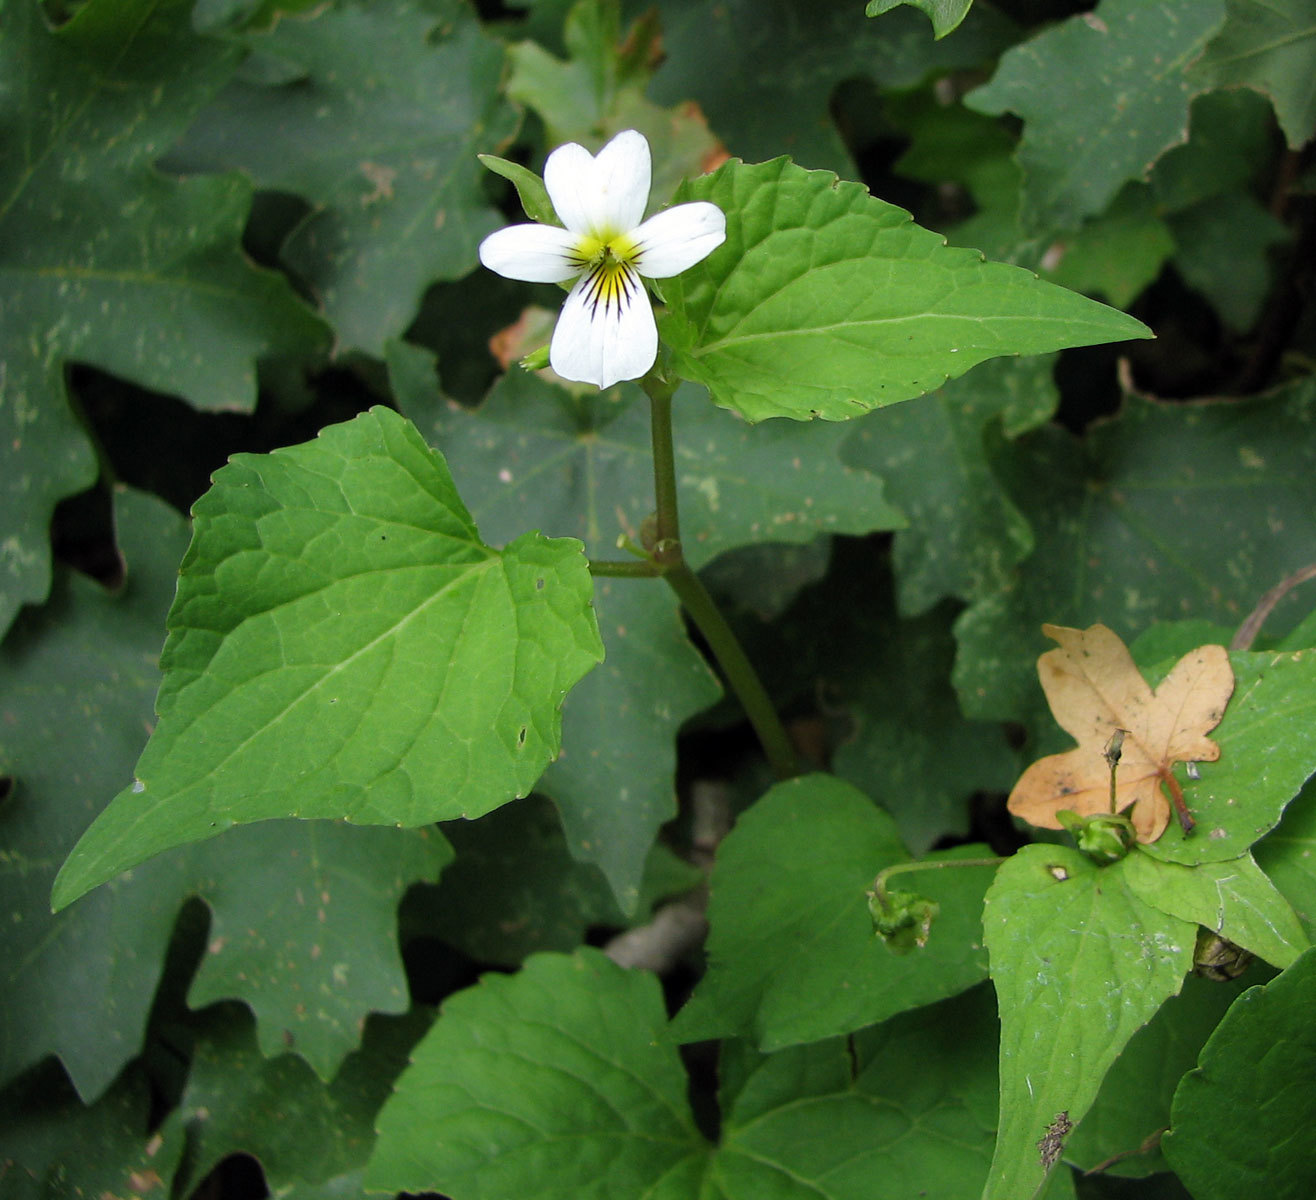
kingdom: Plantae
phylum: Tracheophyta
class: Magnoliopsida
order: Malpighiales
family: Violaceae
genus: Viola
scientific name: Viola canadensis
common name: Canada violet
